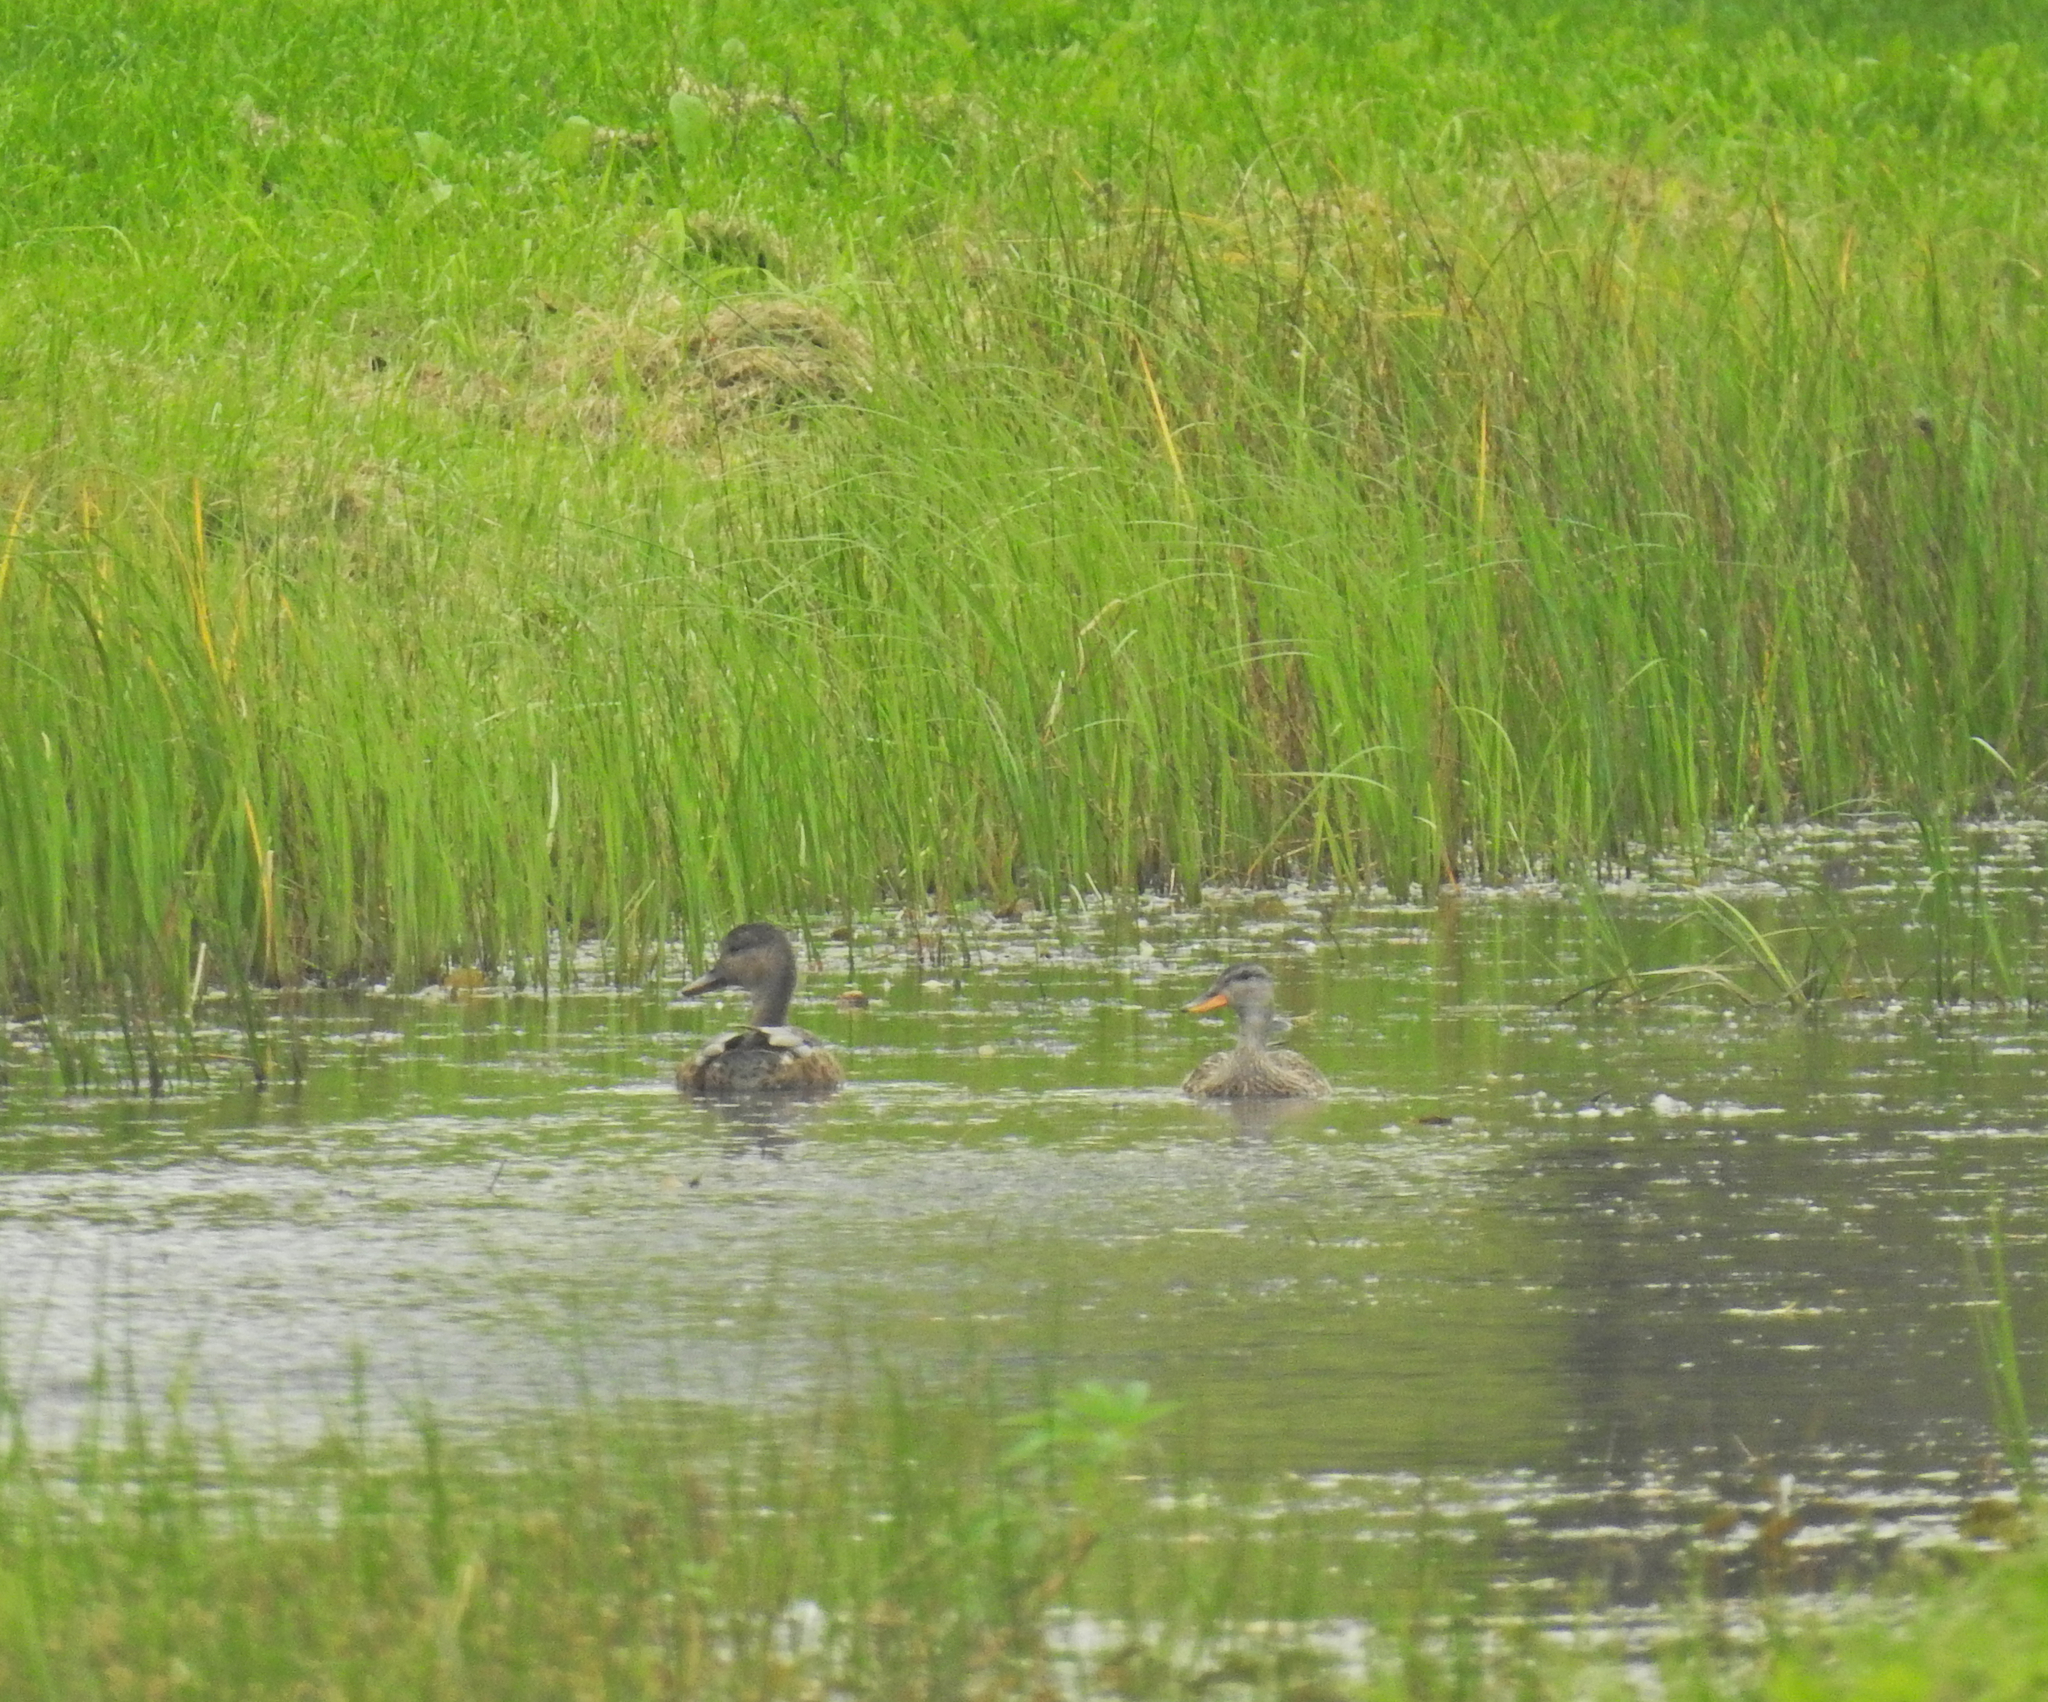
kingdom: Animalia
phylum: Chordata
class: Aves
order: Anseriformes
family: Anatidae
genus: Mareca
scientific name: Mareca strepera
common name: Gadwall
